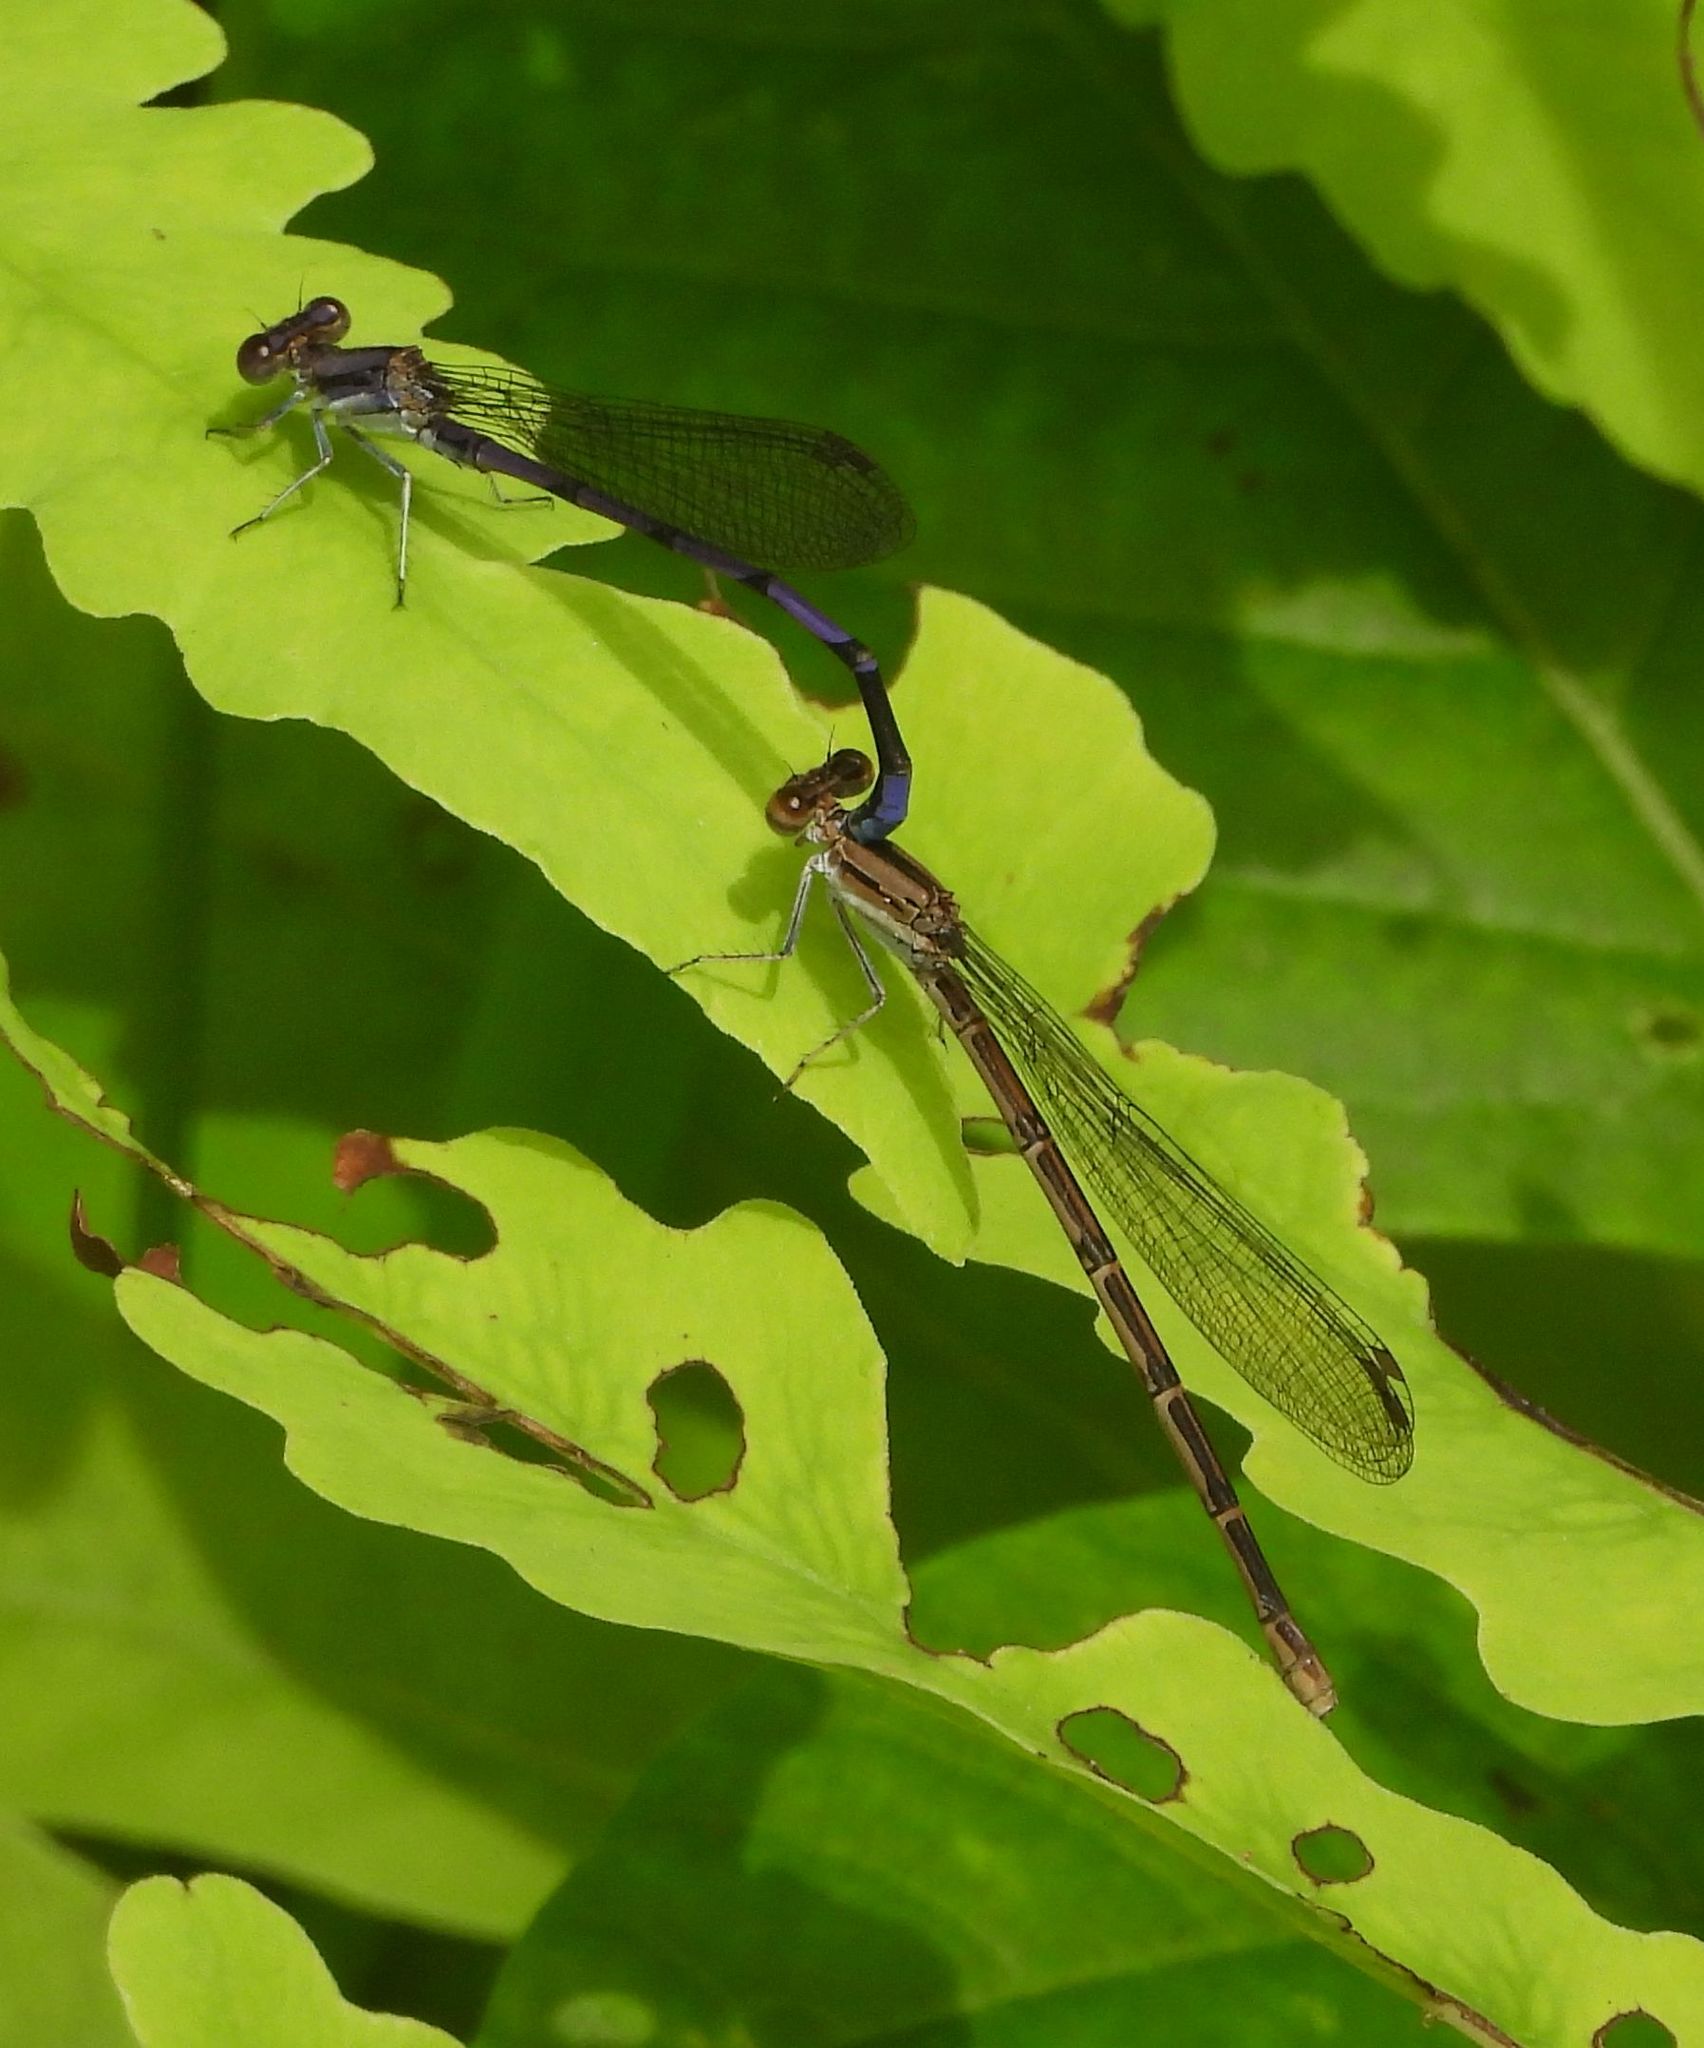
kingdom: Animalia
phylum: Arthropoda
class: Insecta
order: Odonata
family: Coenagrionidae
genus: Argia
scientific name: Argia fumipennis
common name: Variable dancer
